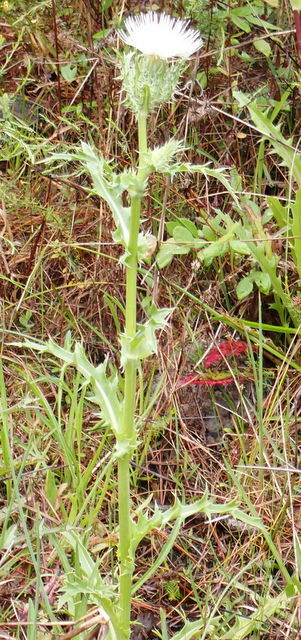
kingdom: Plantae
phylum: Tracheophyta
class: Magnoliopsida
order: Asterales
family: Asteraceae
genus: Cirsium
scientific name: Cirsium horridulum
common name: Bristly thistle
